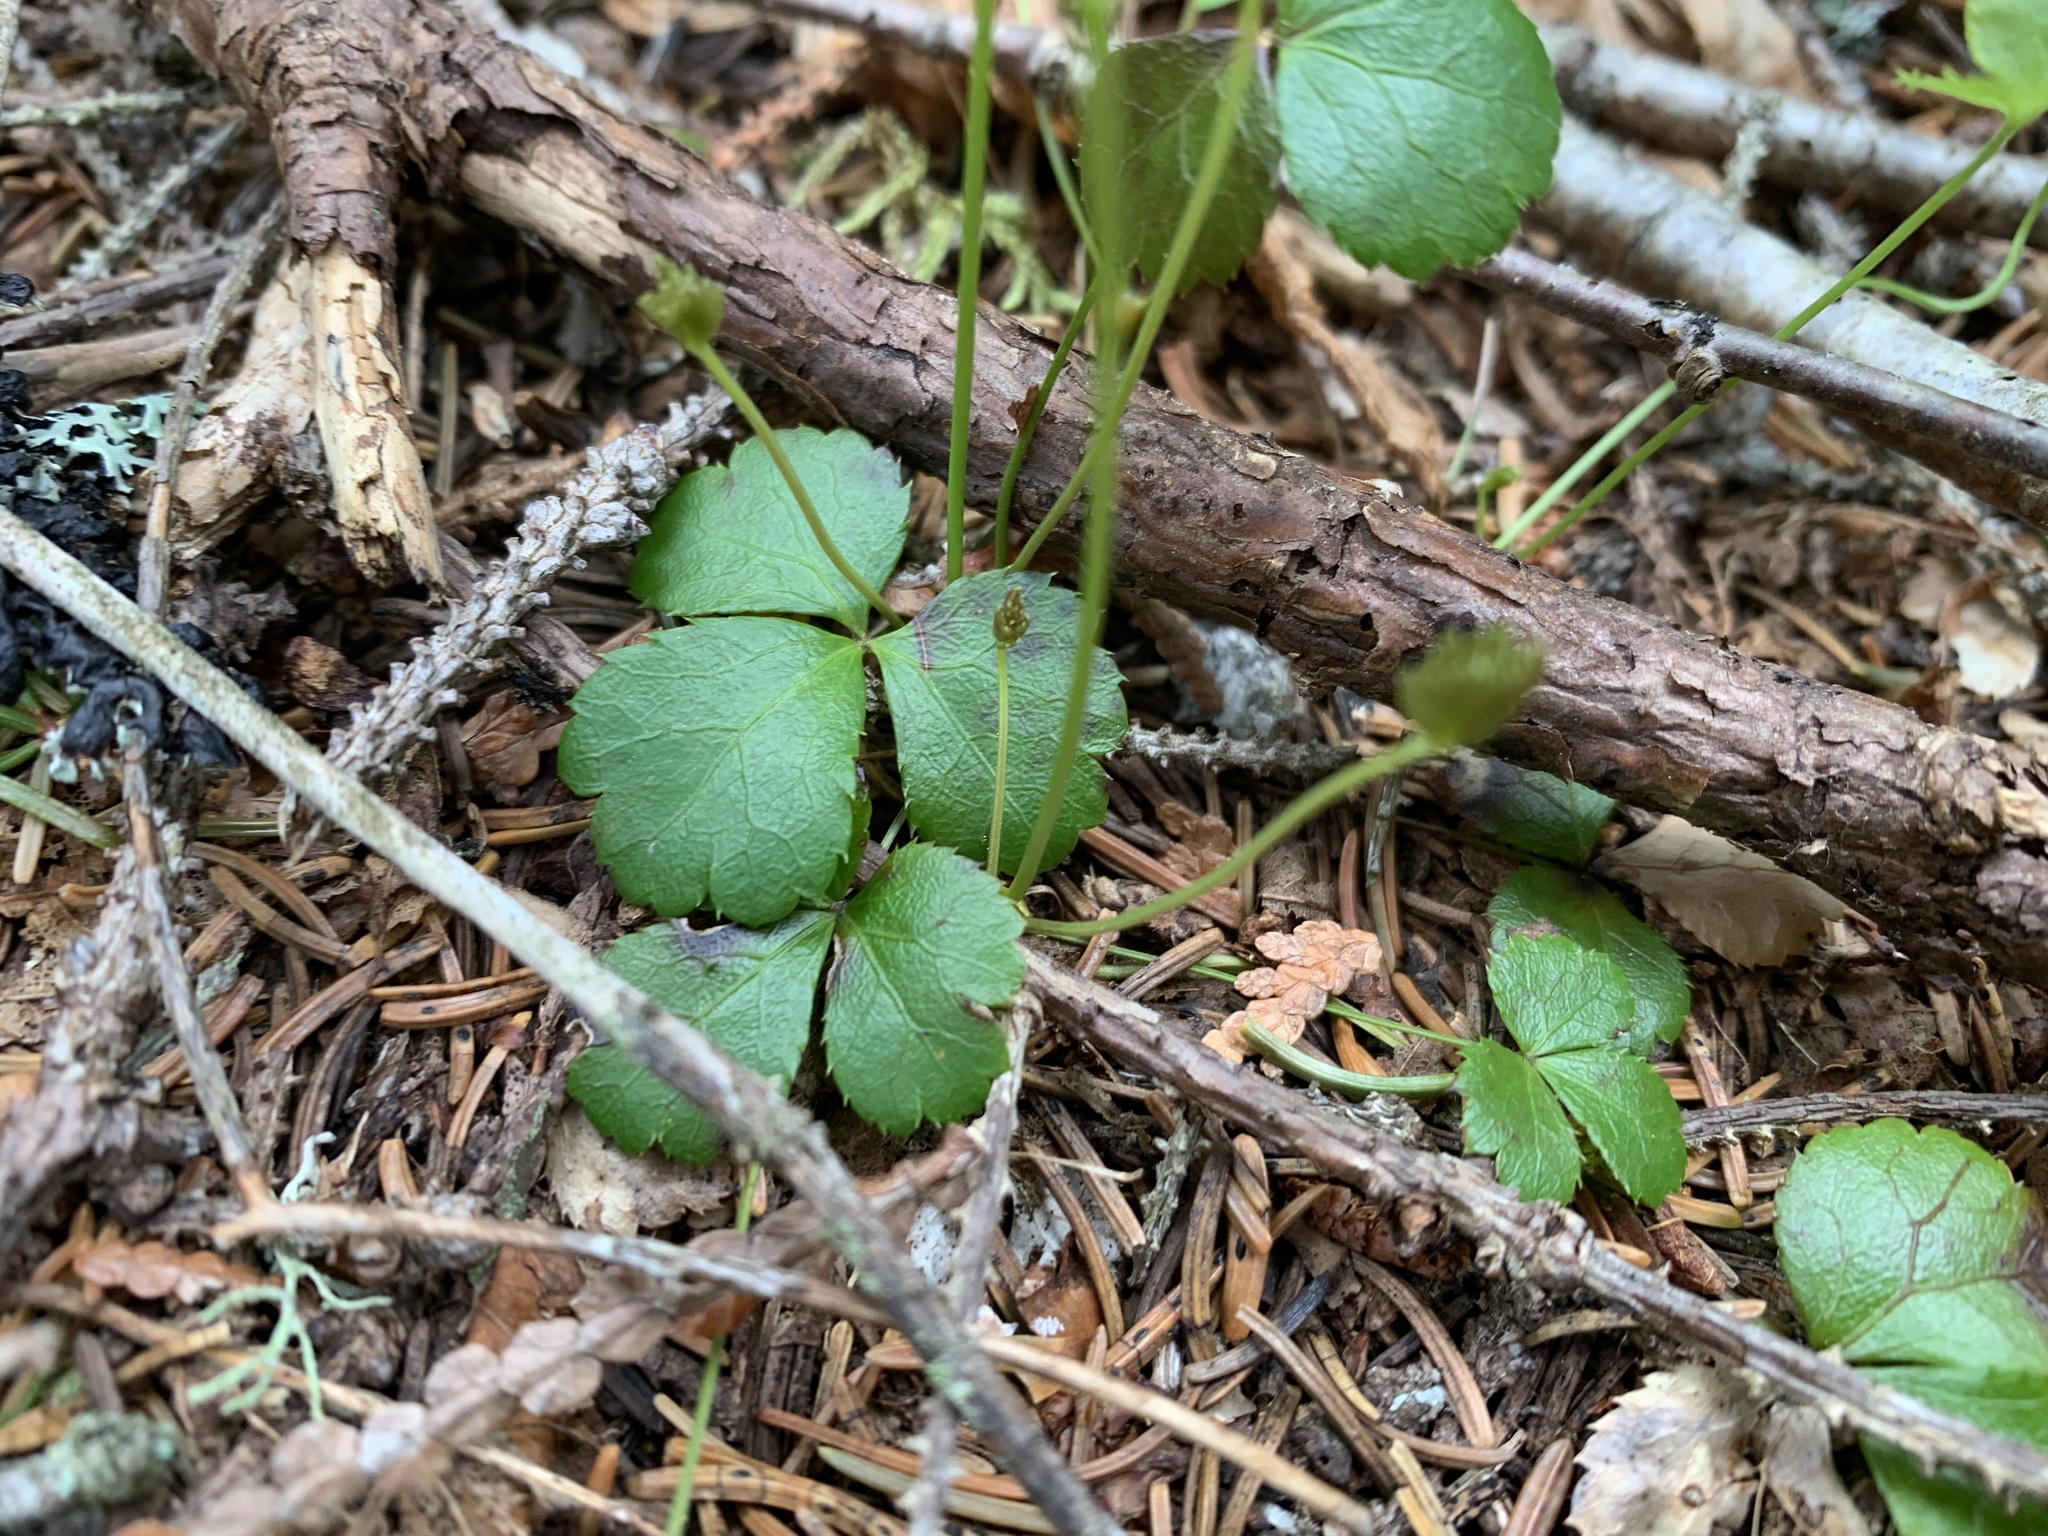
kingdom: Plantae
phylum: Tracheophyta
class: Magnoliopsida
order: Ranunculales
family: Ranunculaceae
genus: Coptis
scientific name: Coptis trifolia
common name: Canker-root
